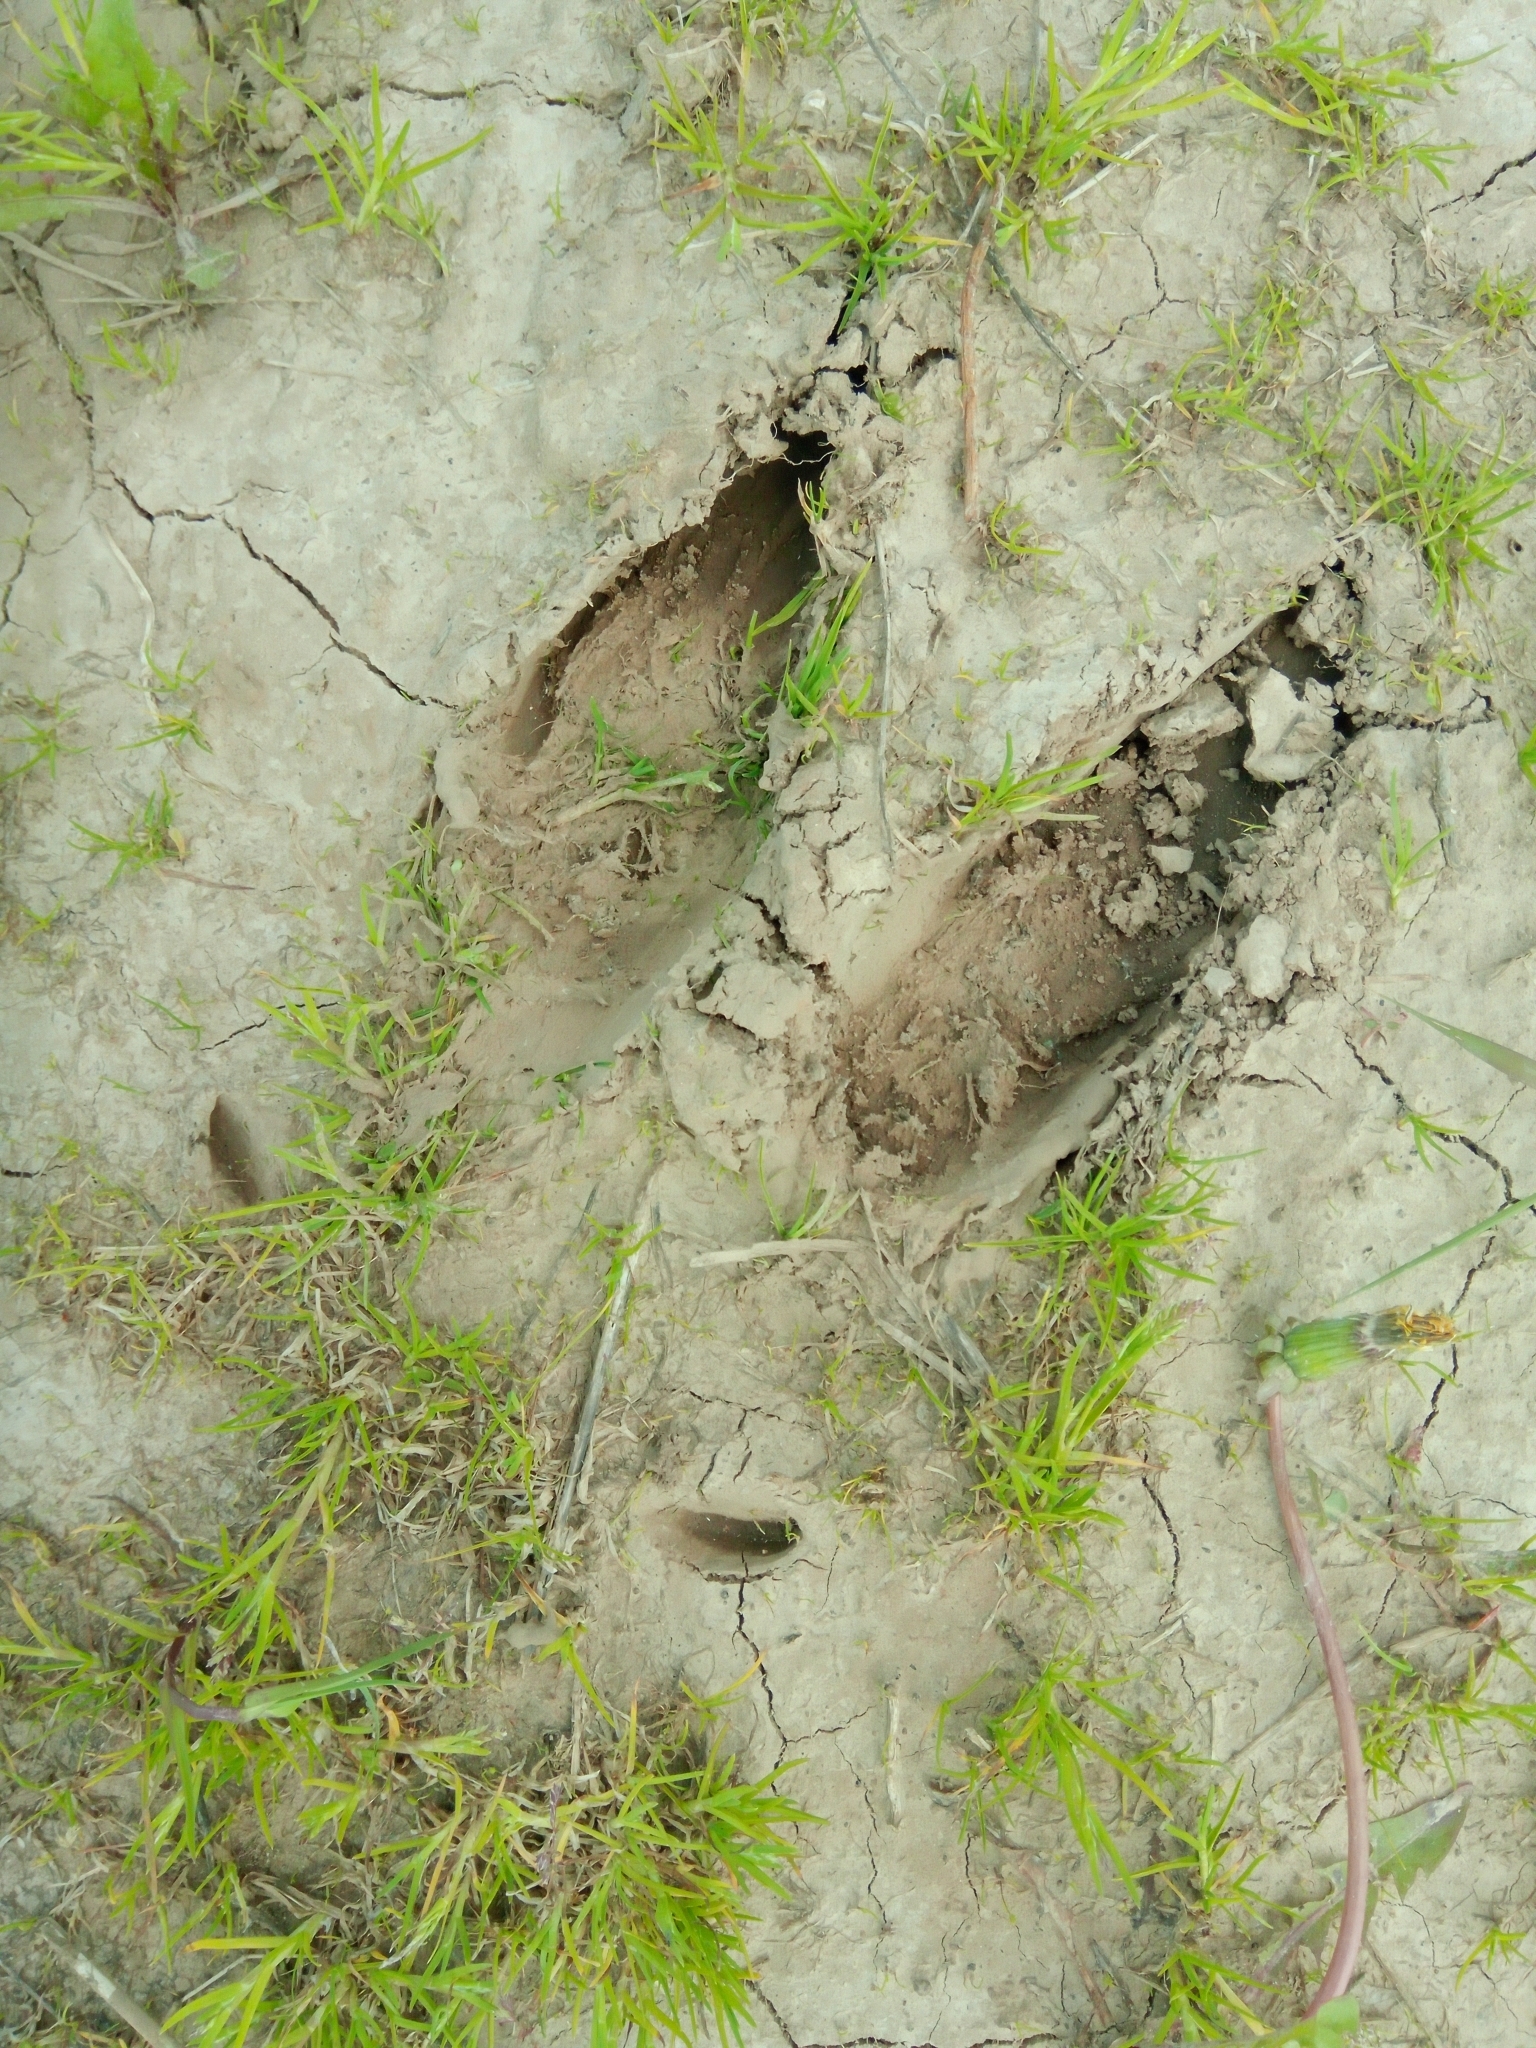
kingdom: Animalia
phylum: Chordata
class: Mammalia
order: Artiodactyla
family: Cervidae
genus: Alces
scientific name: Alces alces
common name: Moose
